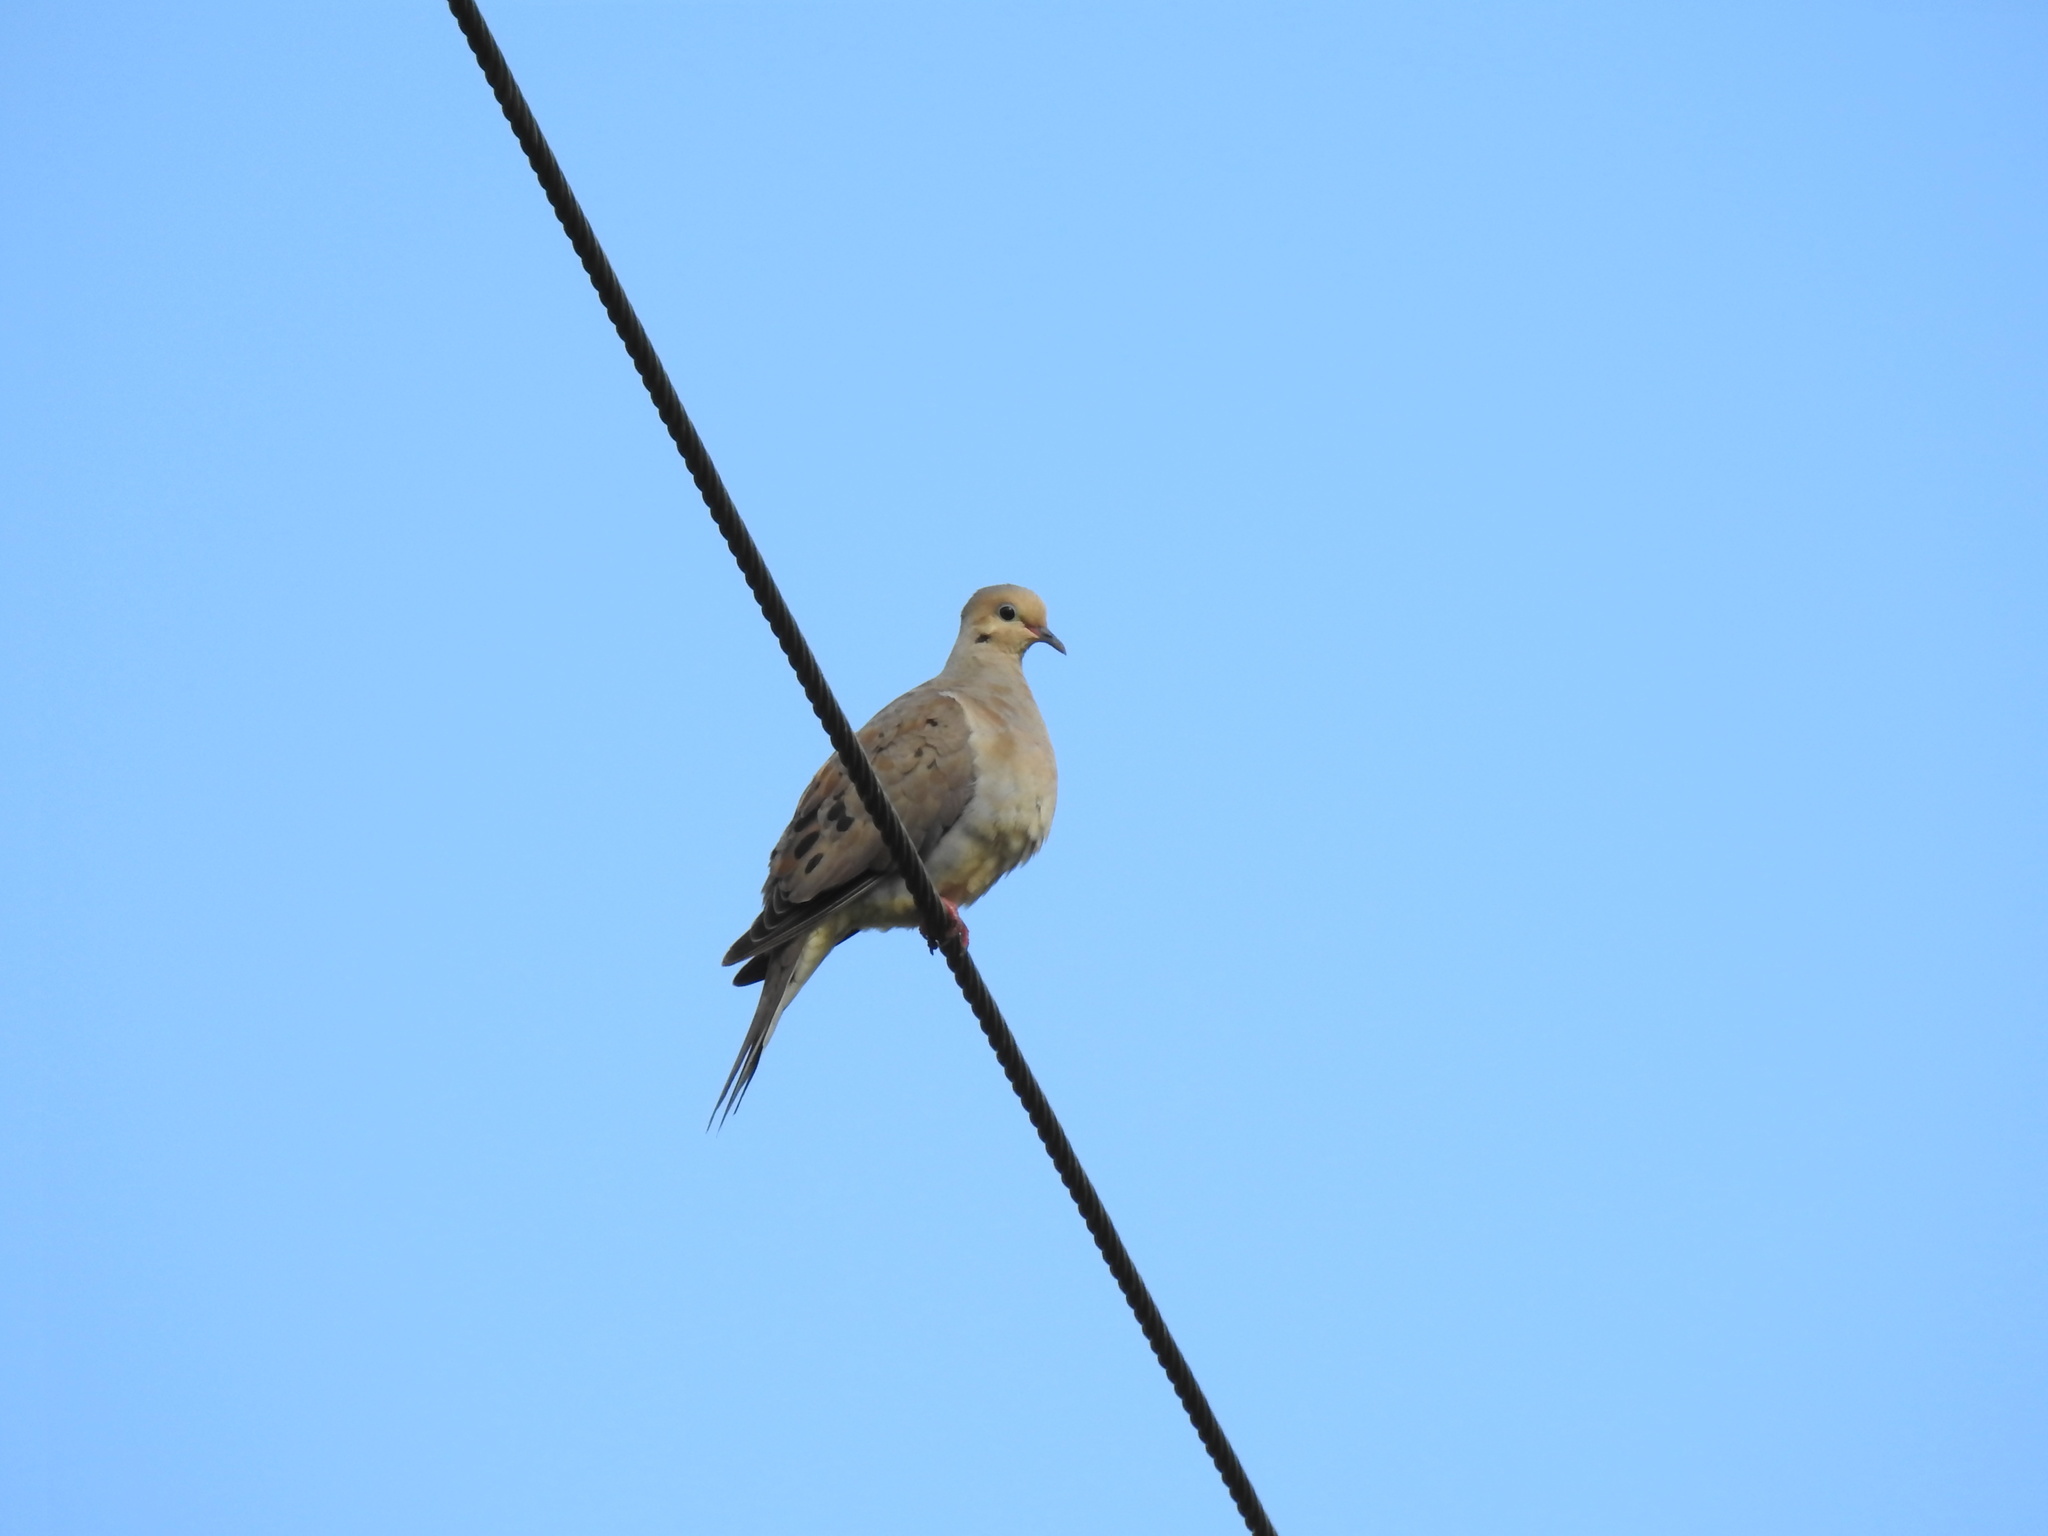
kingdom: Animalia
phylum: Chordata
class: Aves
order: Columbiformes
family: Columbidae
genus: Zenaida
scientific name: Zenaida macroura
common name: Mourning dove
